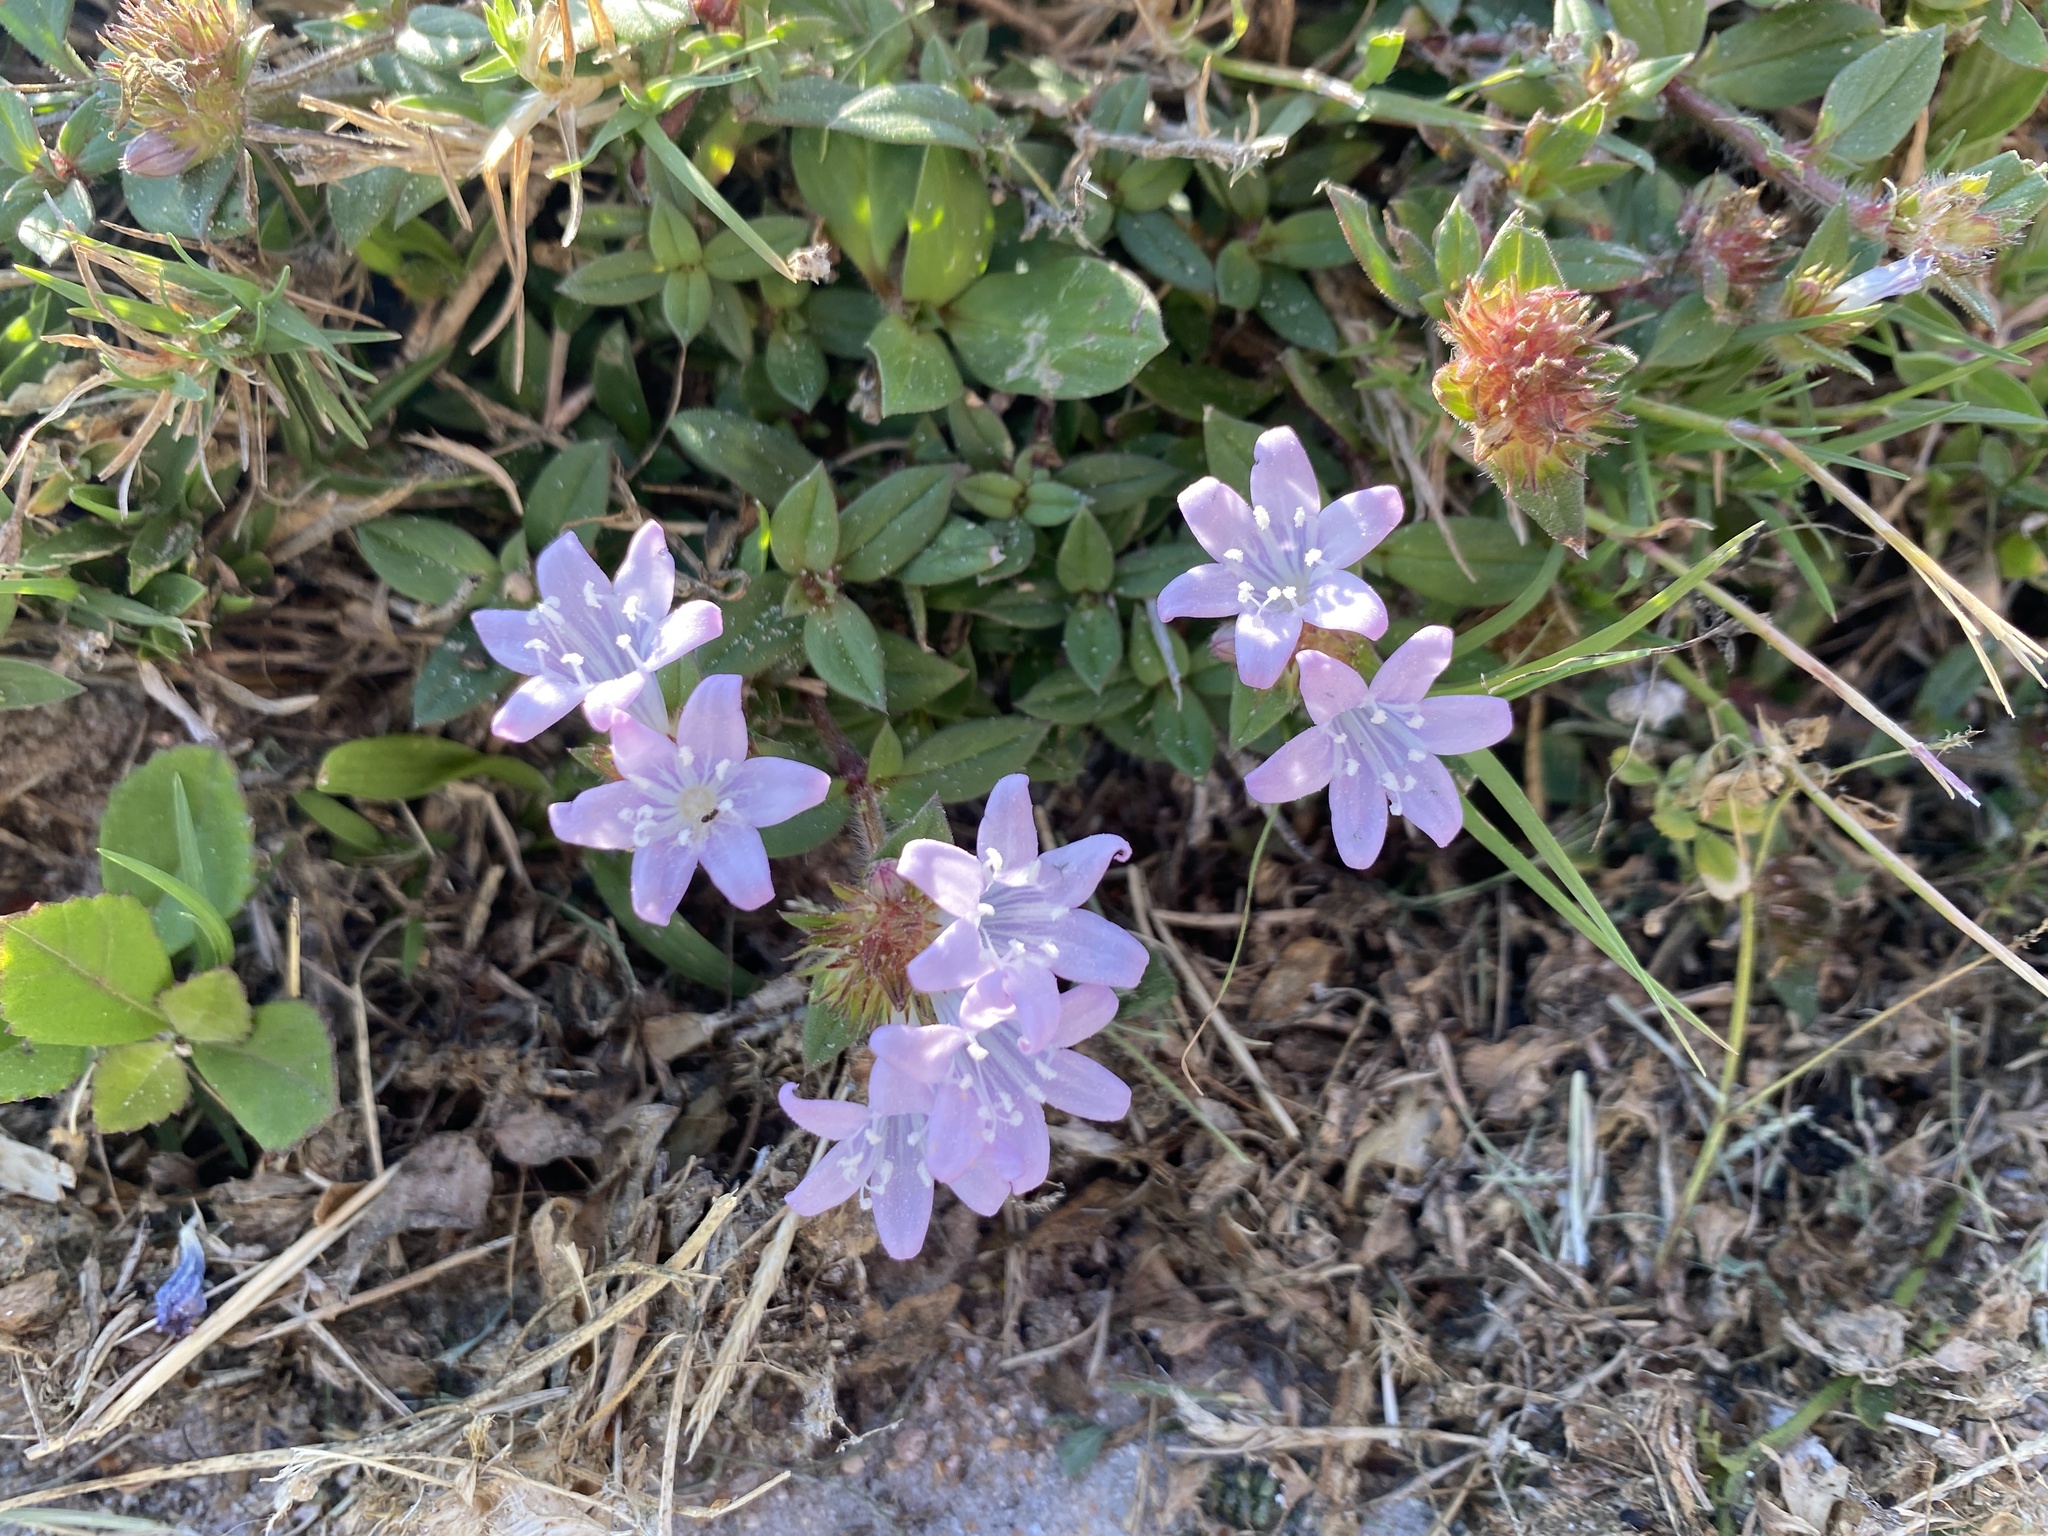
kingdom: Plantae
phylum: Tracheophyta
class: Magnoliopsida
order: Gentianales
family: Rubiaceae
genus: Richardia
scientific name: Richardia grandiflora
